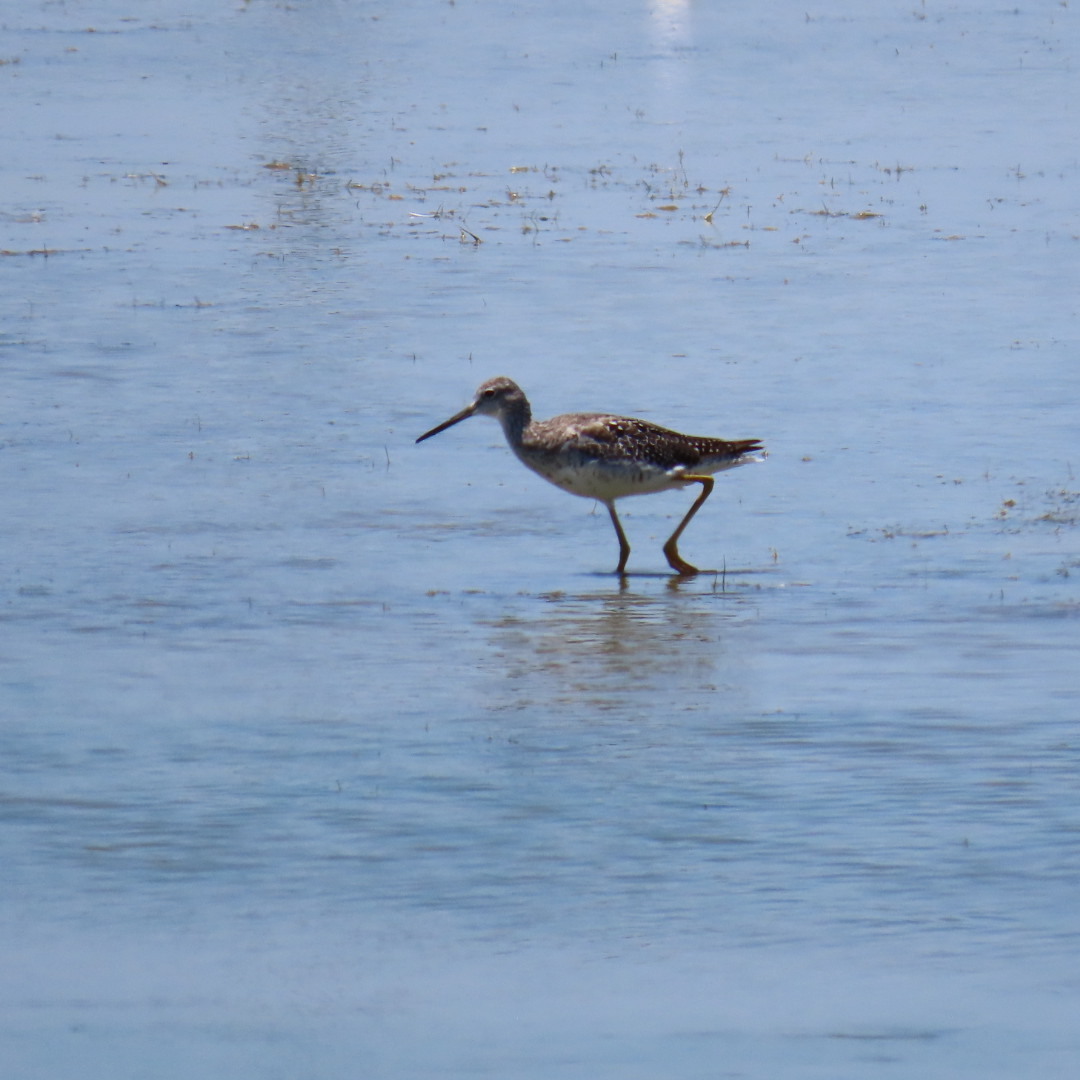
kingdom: Animalia
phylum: Chordata
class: Aves
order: Charadriiformes
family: Scolopacidae
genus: Tringa
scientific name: Tringa melanoleuca
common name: Greater yellowlegs
